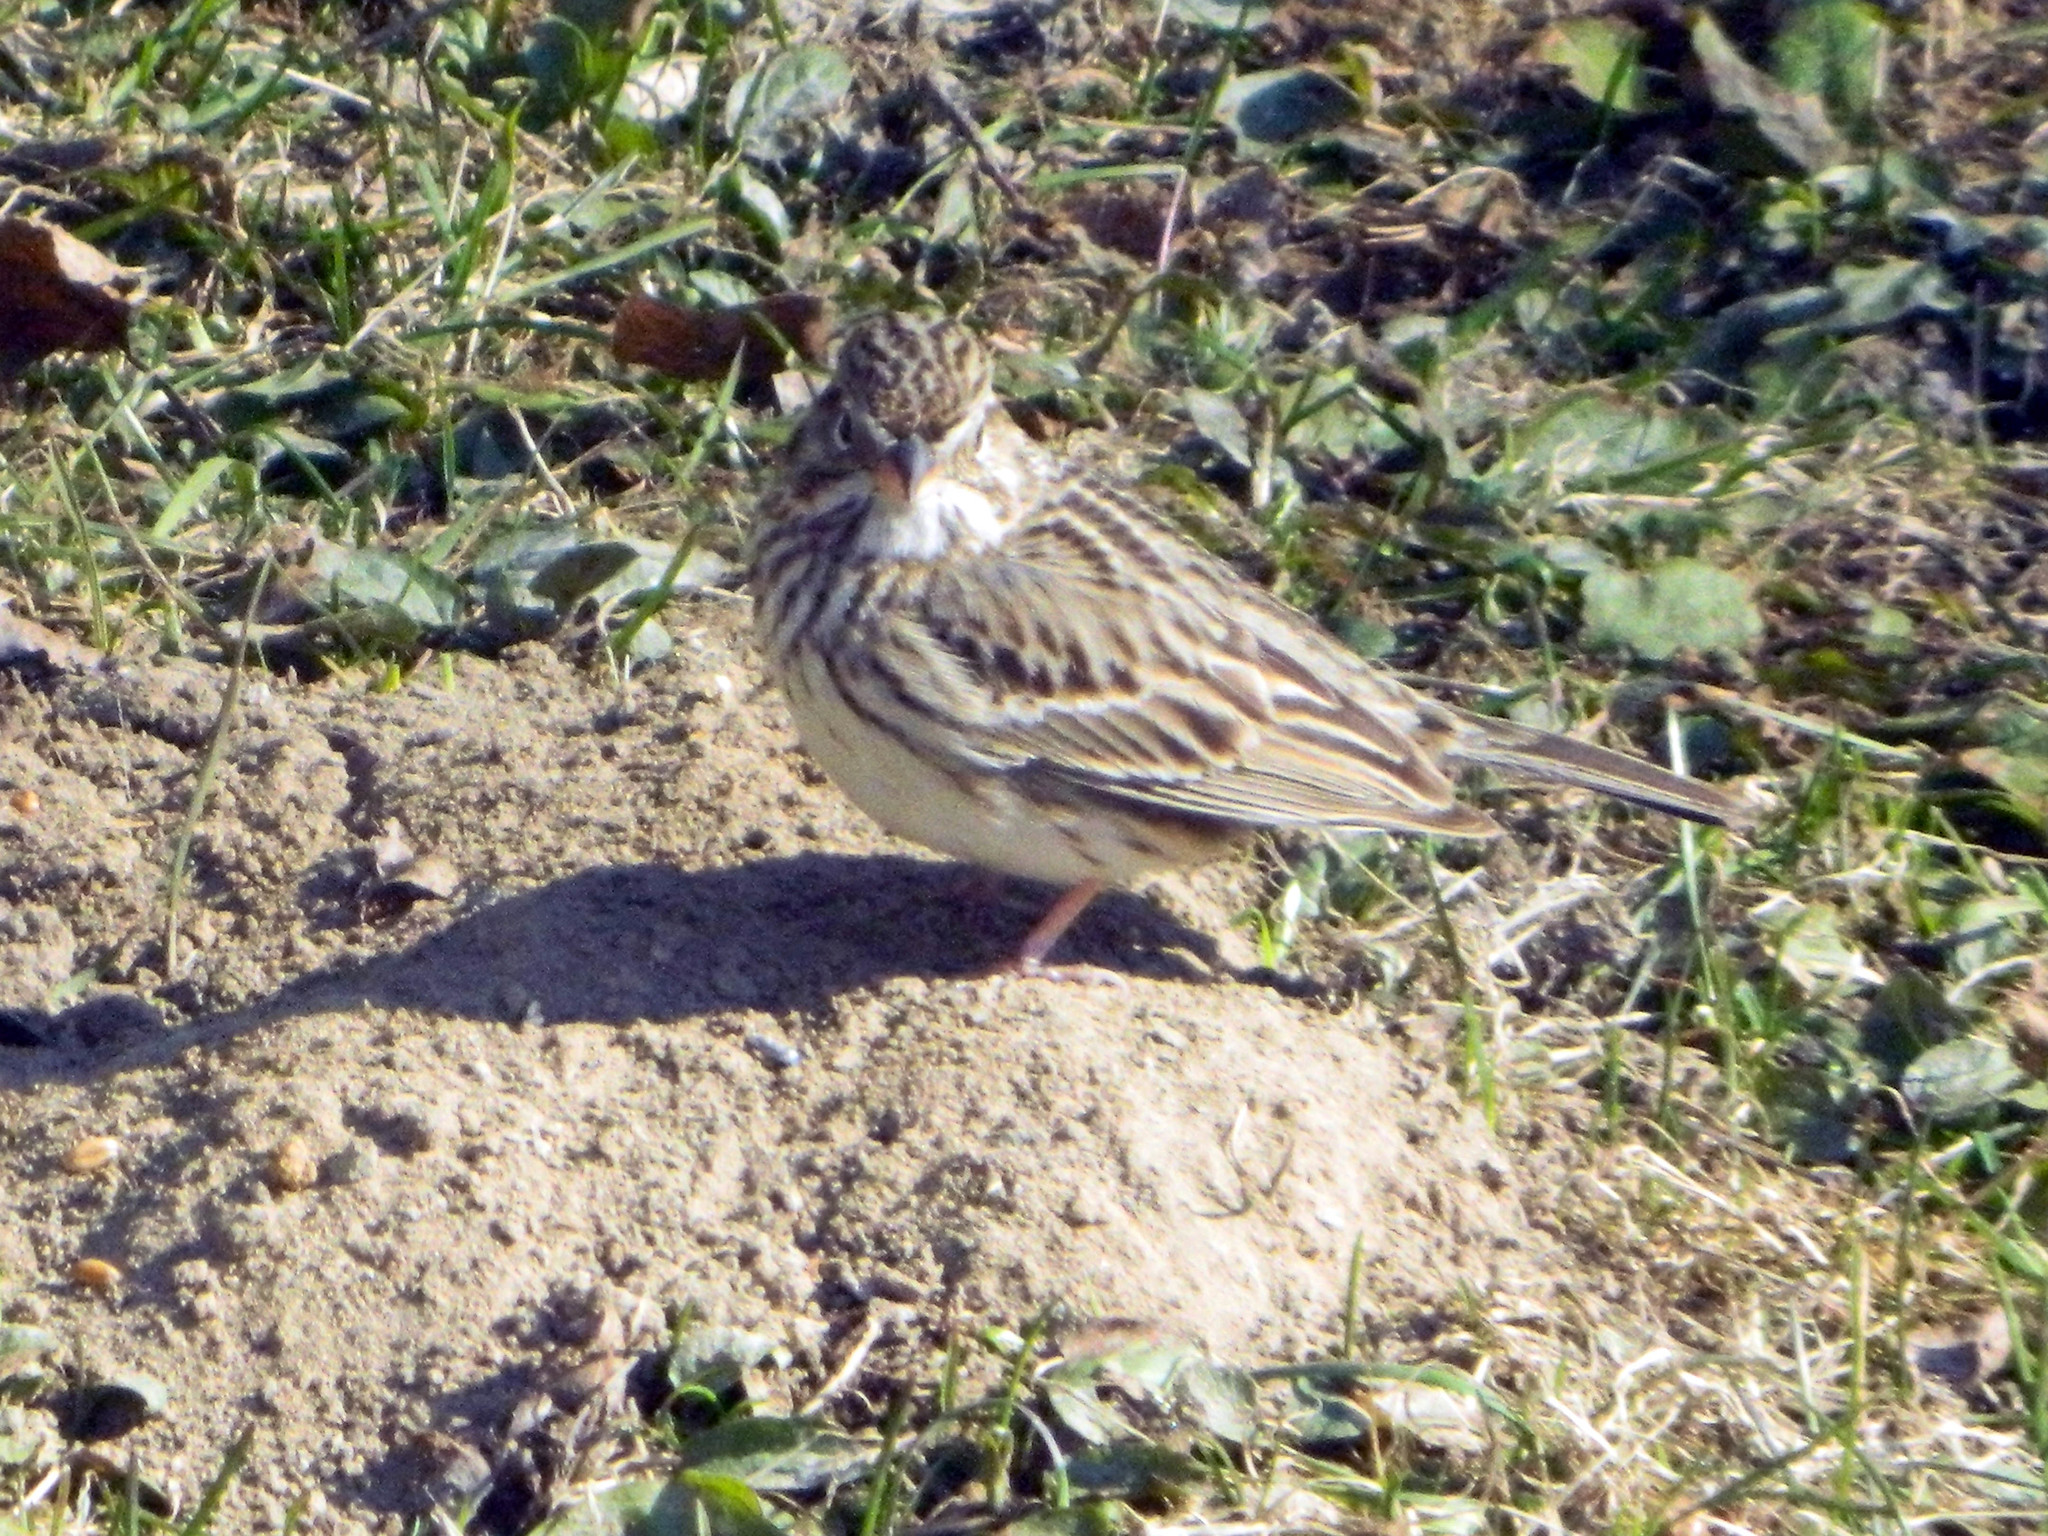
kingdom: Animalia
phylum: Chordata
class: Aves
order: Passeriformes
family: Passerellidae
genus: Pooecetes
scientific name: Pooecetes gramineus
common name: Vesper sparrow
